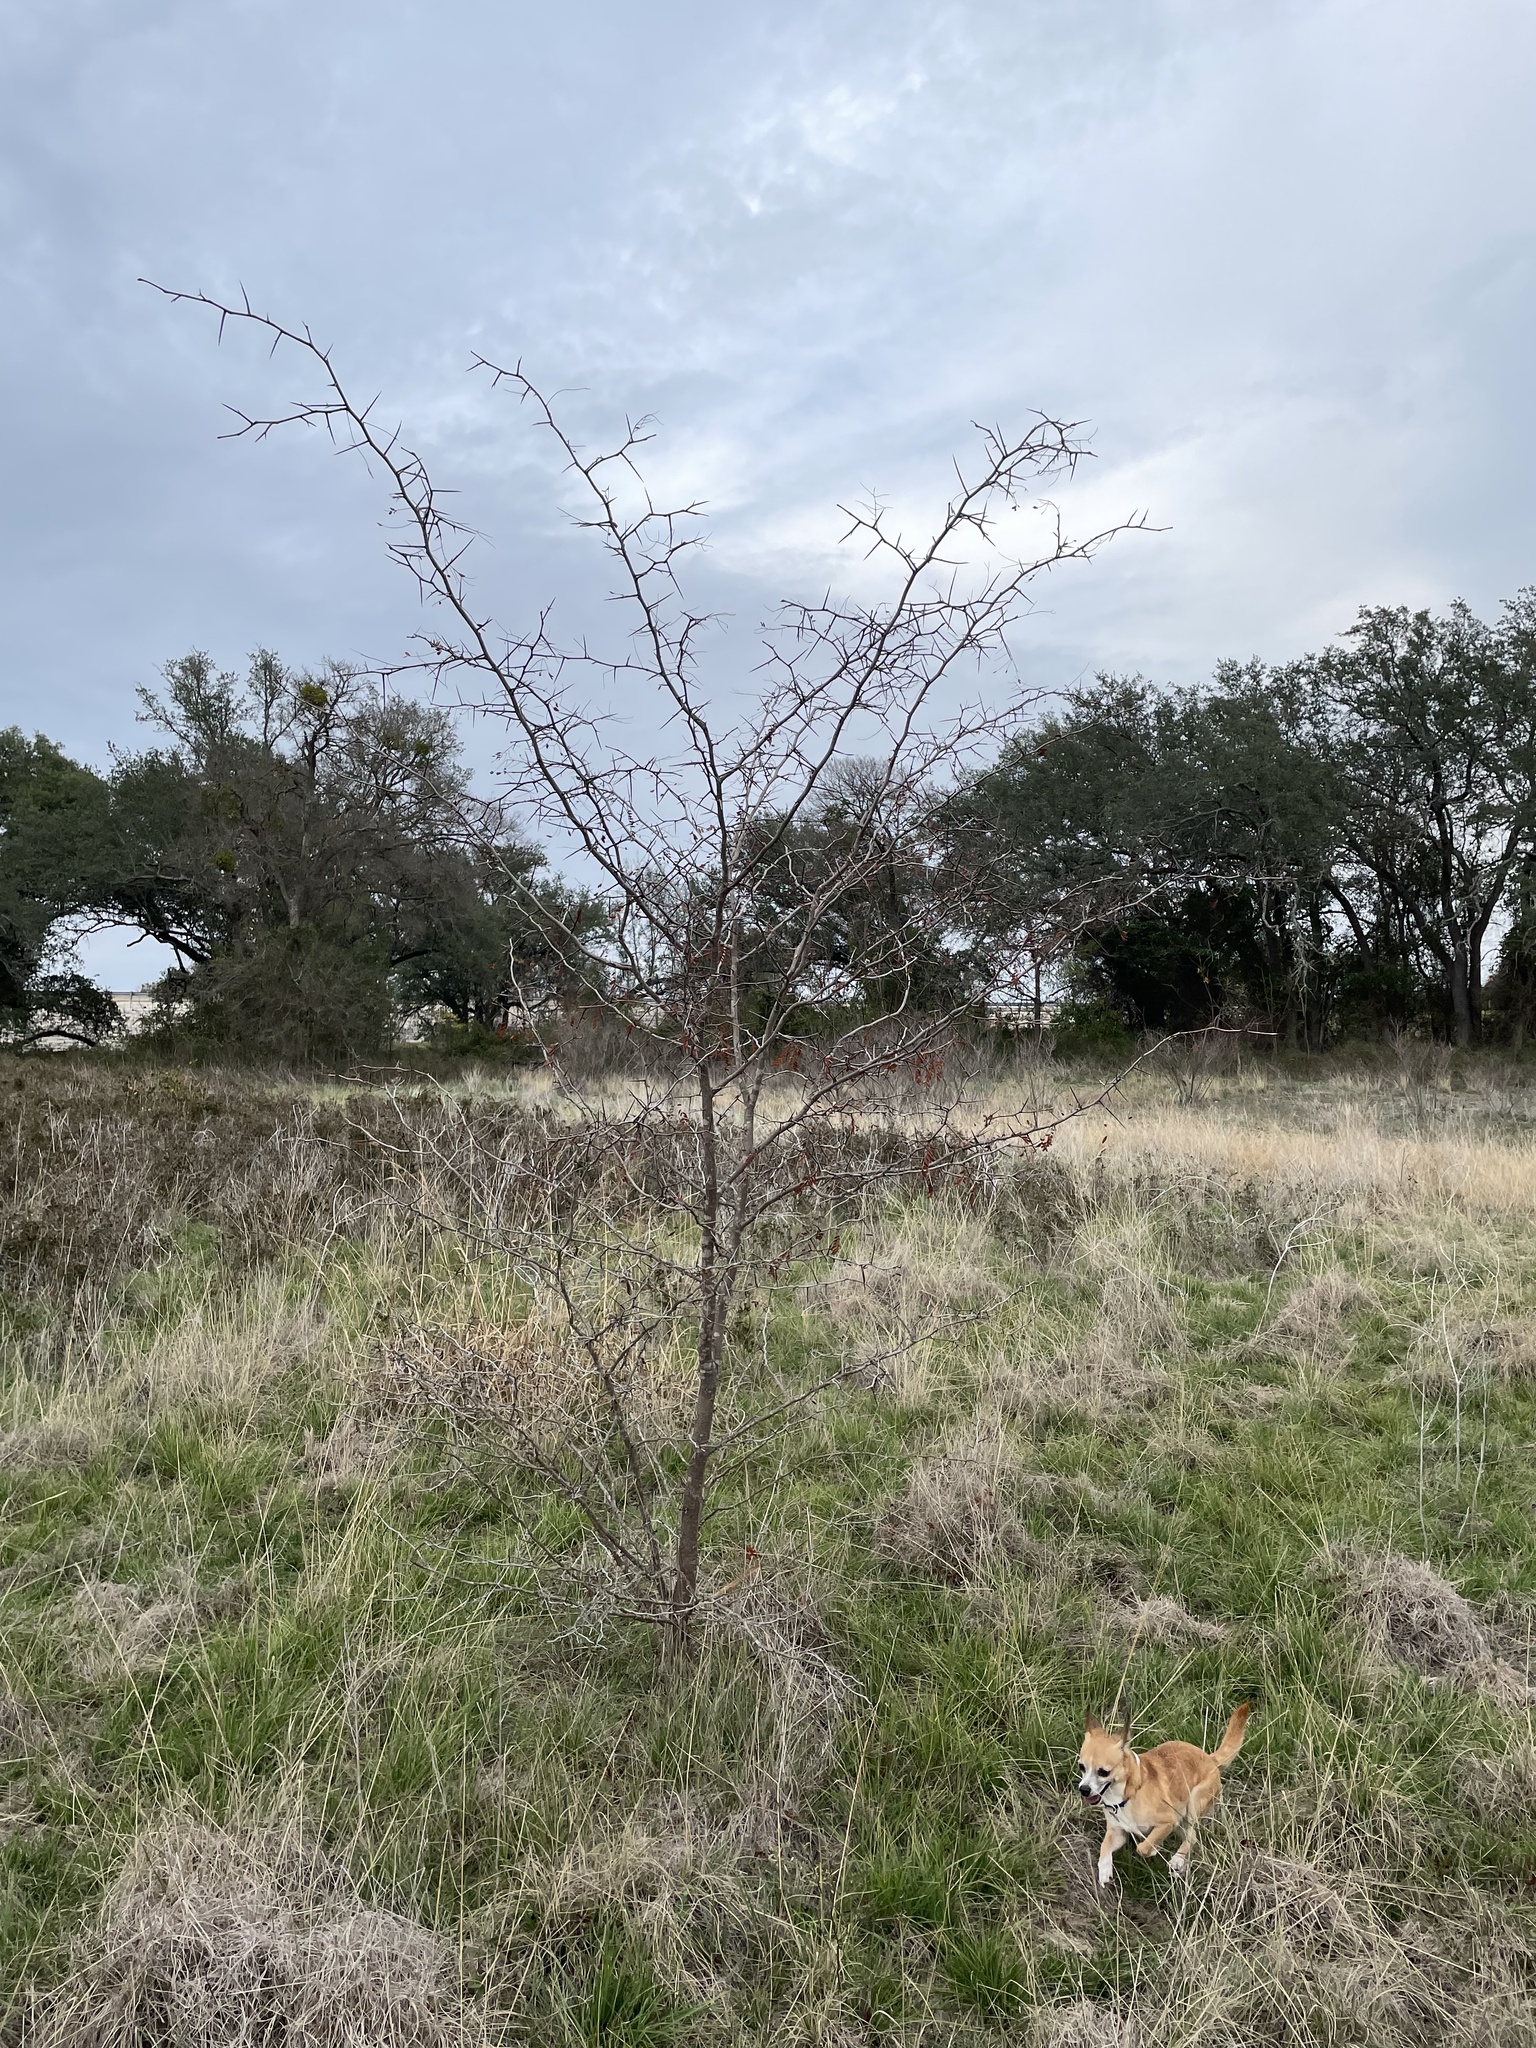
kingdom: Plantae
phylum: Tracheophyta
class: Magnoliopsida
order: Fabales
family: Fabaceae
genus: Gleditsia
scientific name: Gleditsia triacanthos
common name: Common honeylocust
